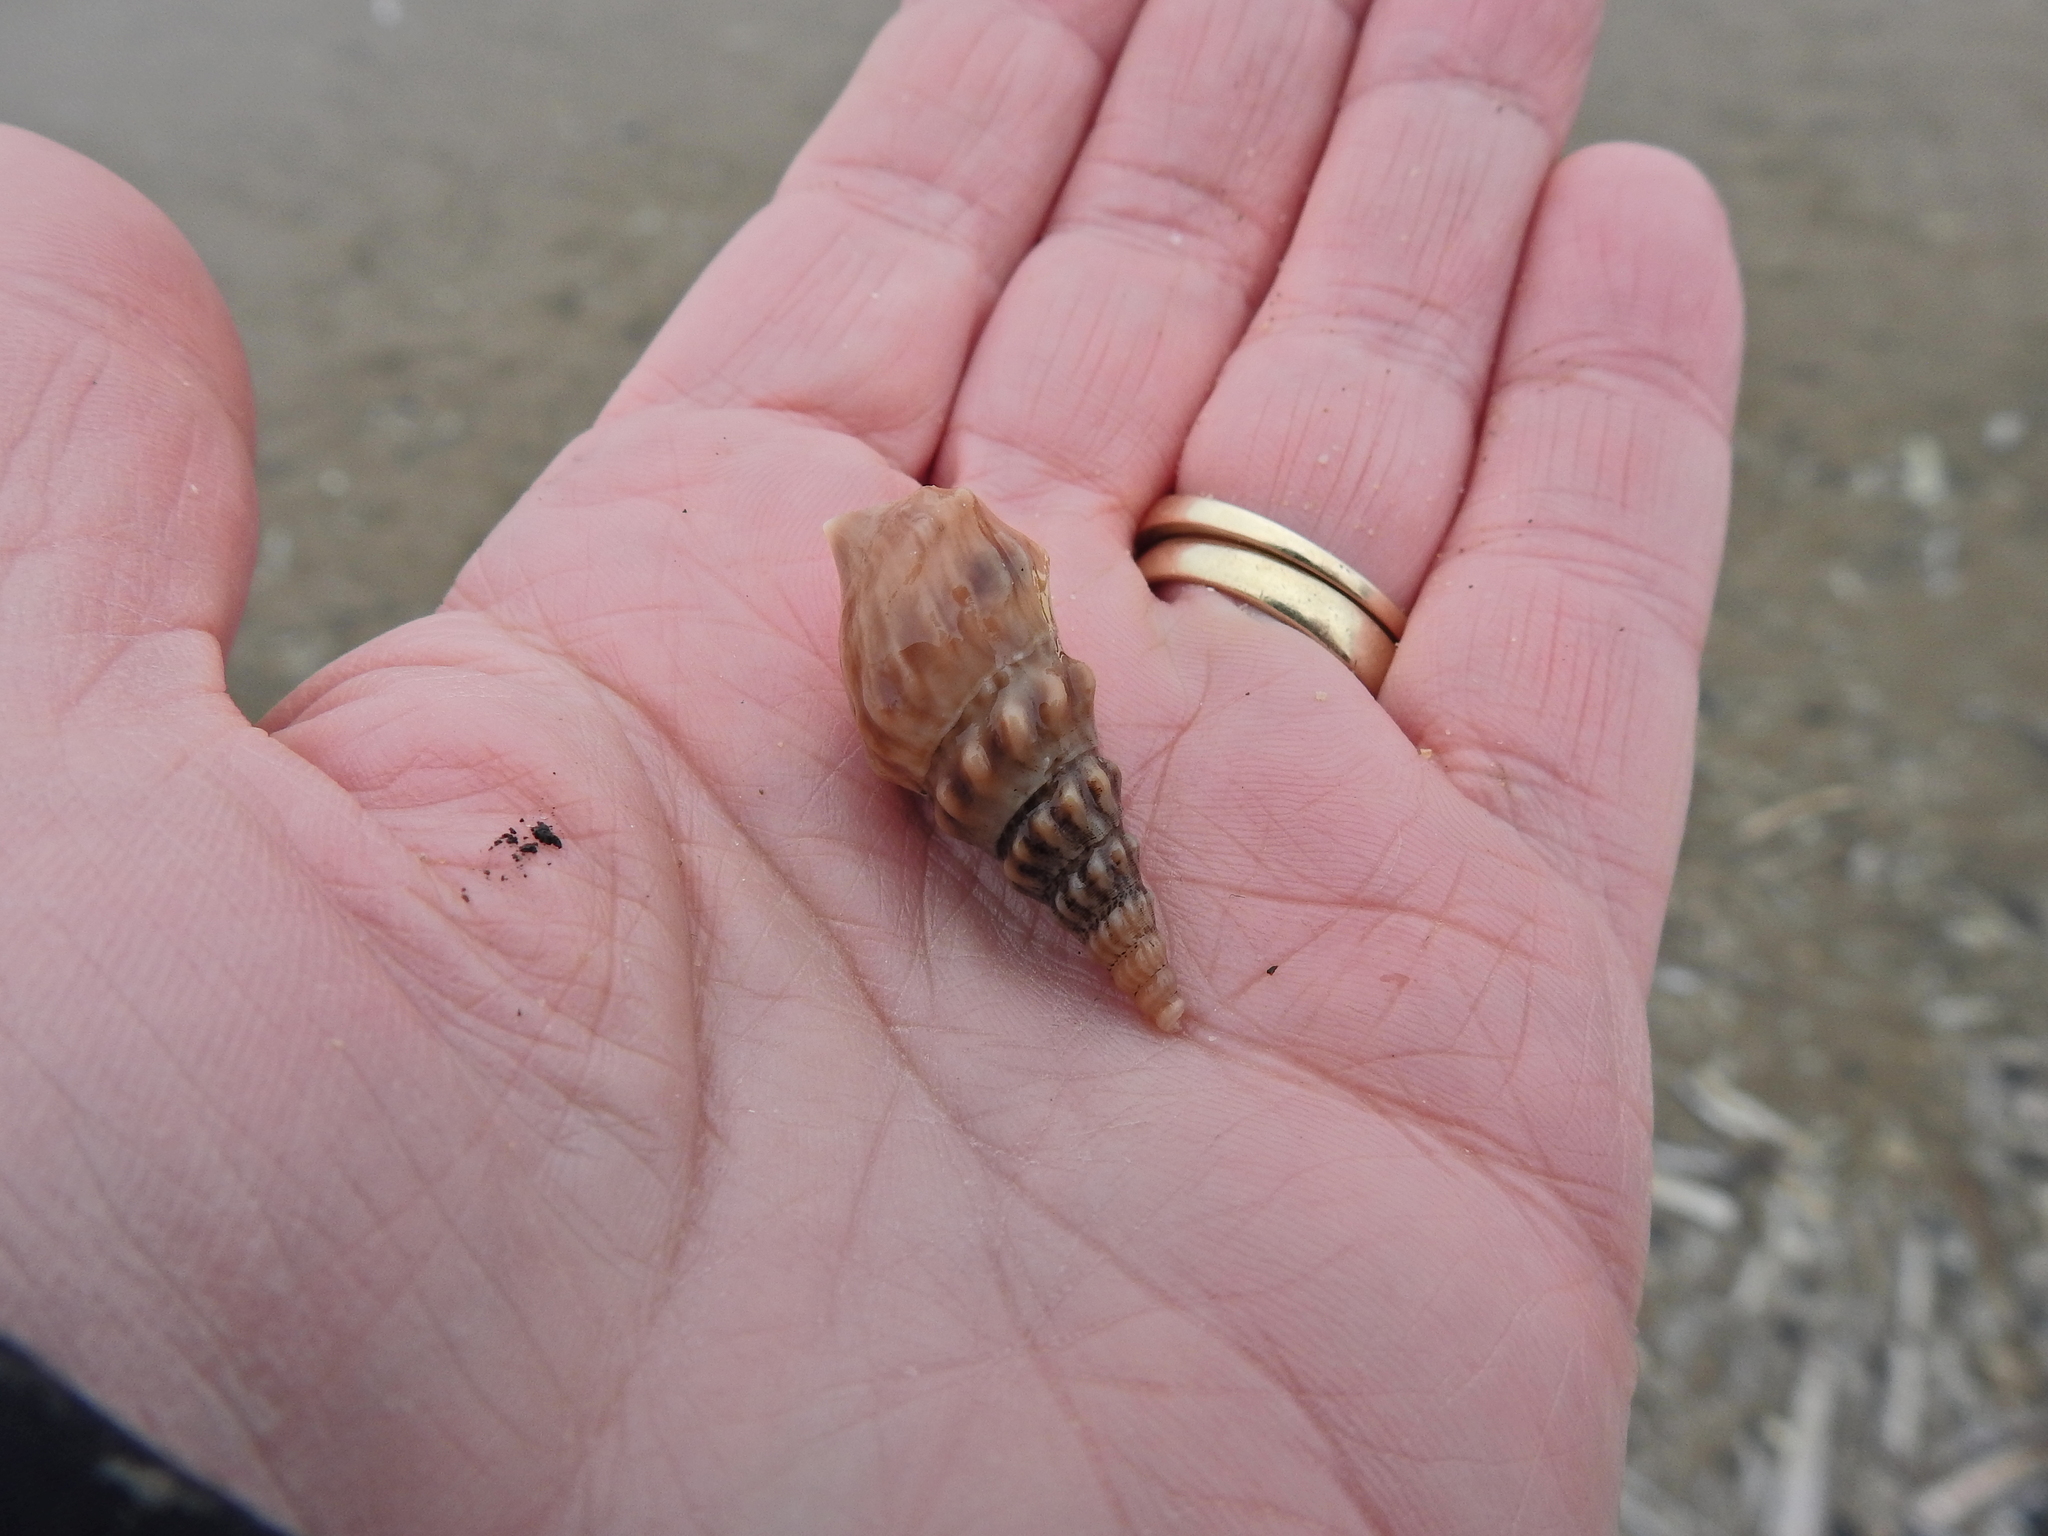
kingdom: Animalia
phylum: Mollusca
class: Gastropoda
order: Littorinimorpha
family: Aporrhaidae
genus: Aporrhais
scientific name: Aporrhais pespelecani
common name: Common pelican’s foot
